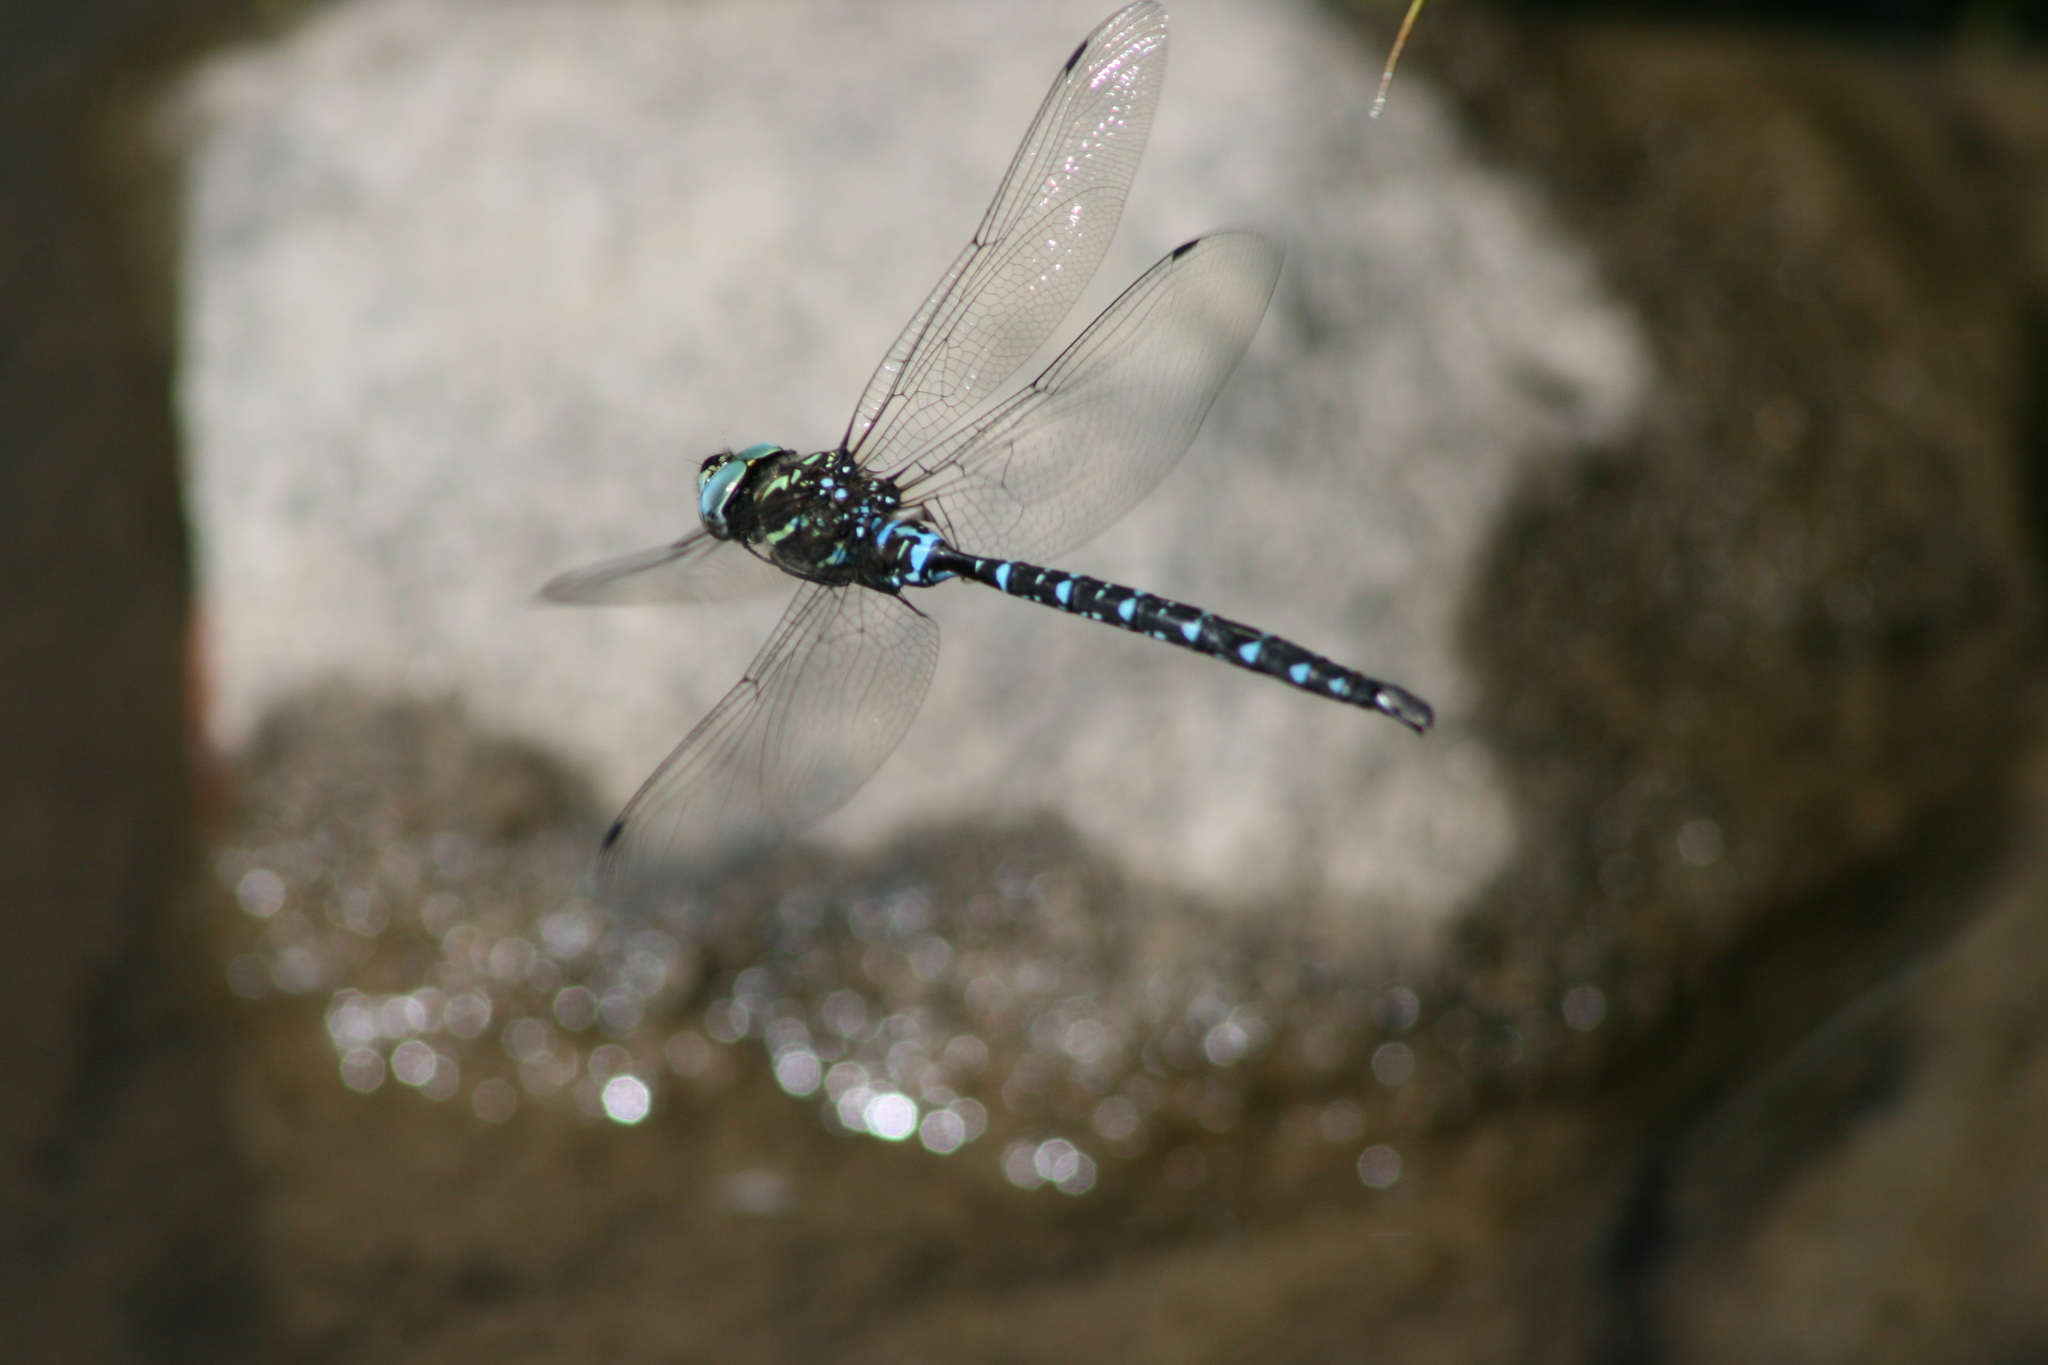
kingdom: Animalia
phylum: Arthropoda
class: Insecta
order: Odonata
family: Aeshnidae
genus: Aeshna
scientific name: Aeshna umbrosa
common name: Shadow darner
